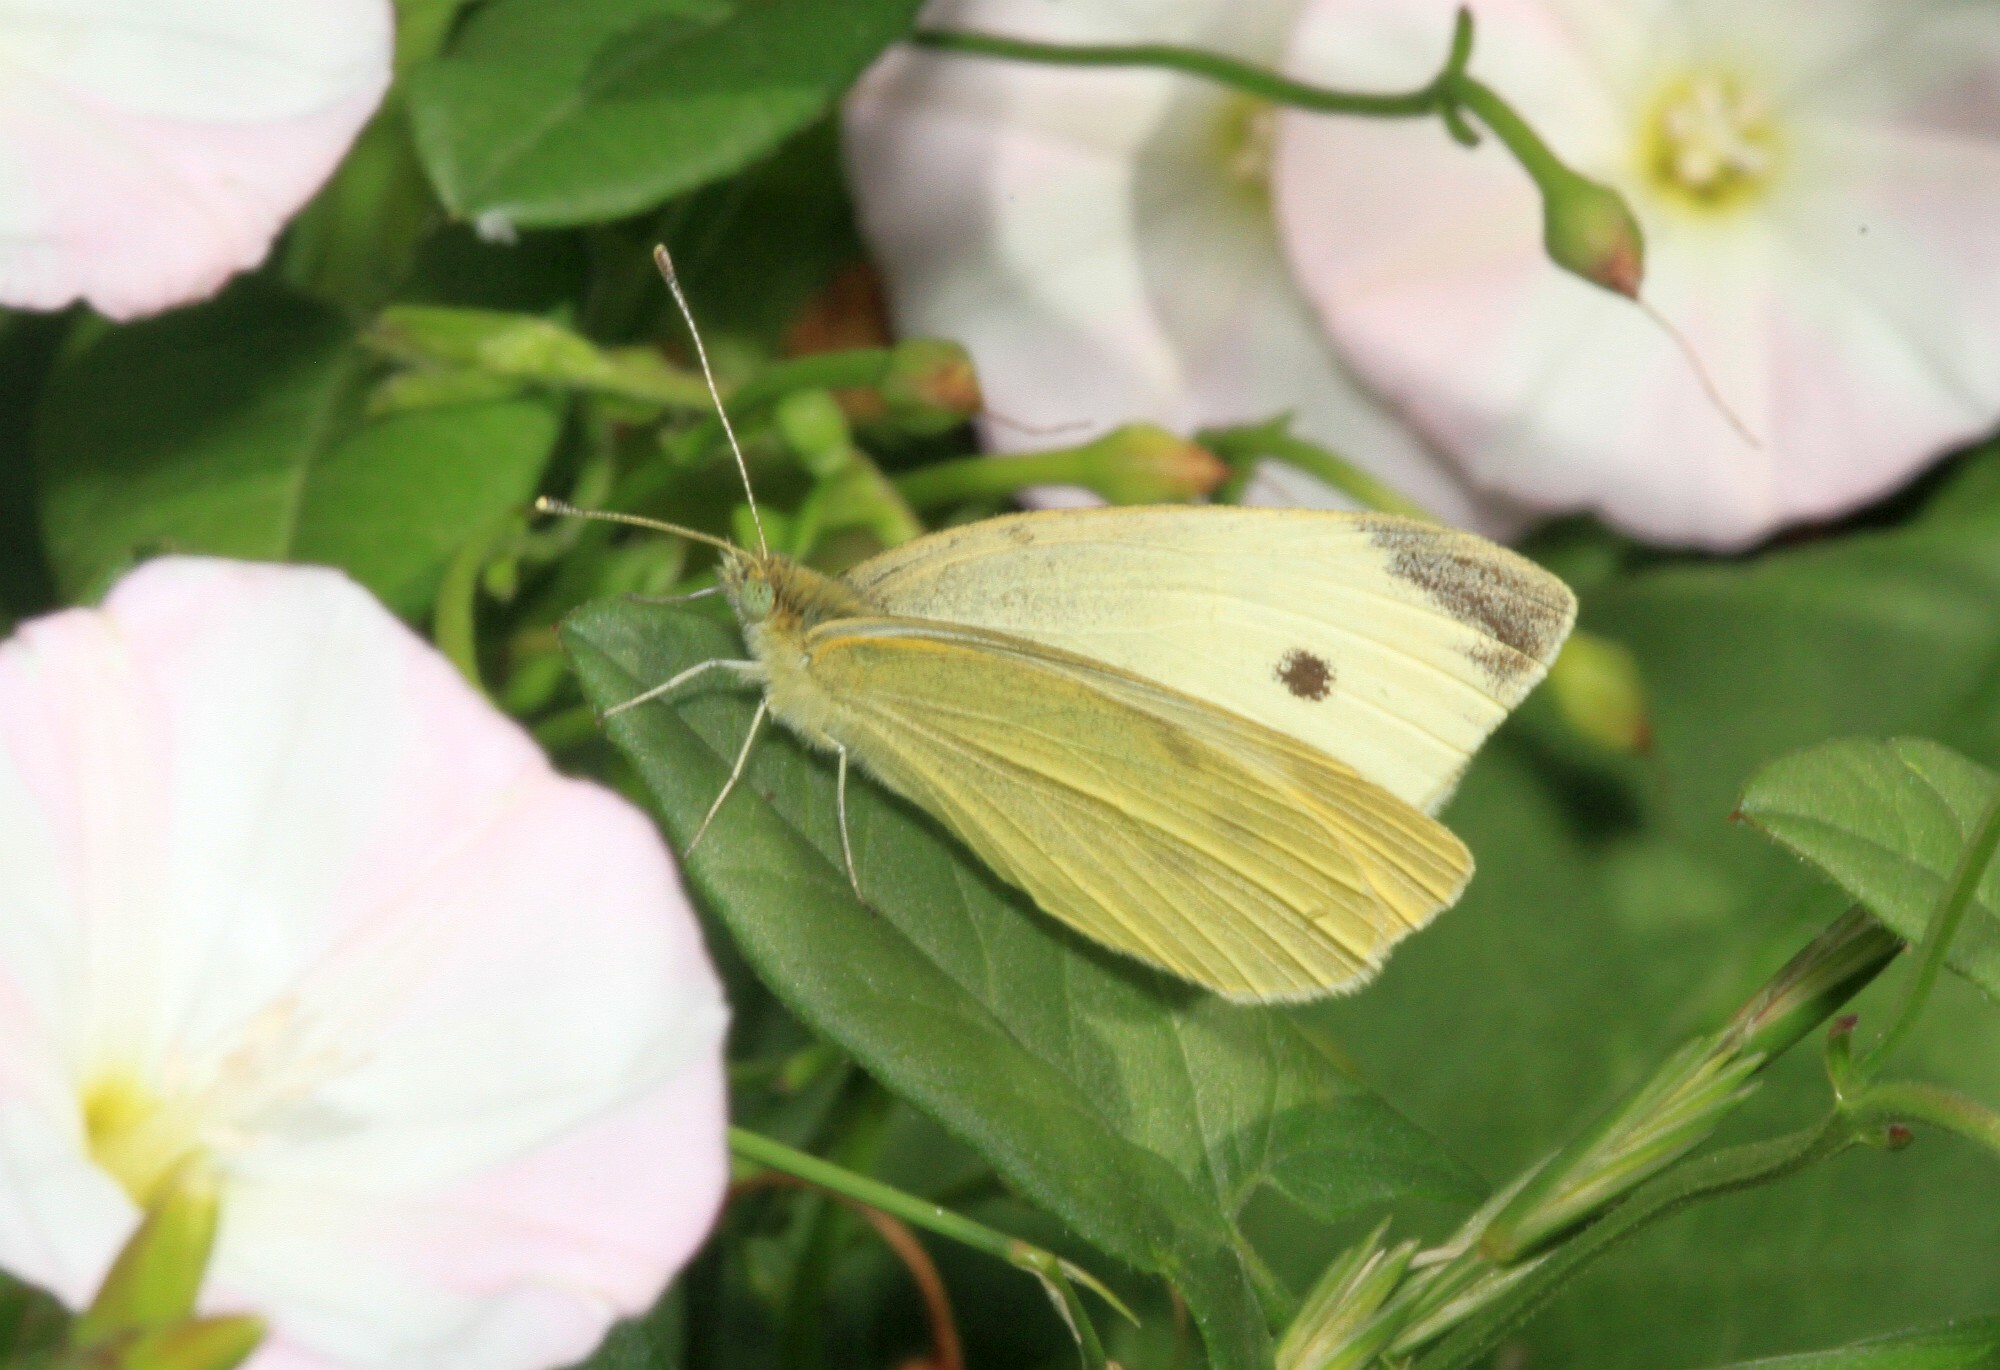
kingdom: Animalia
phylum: Arthropoda
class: Insecta
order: Lepidoptera
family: Pieridae
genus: Pieris
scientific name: Pieris rapae
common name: Small white
